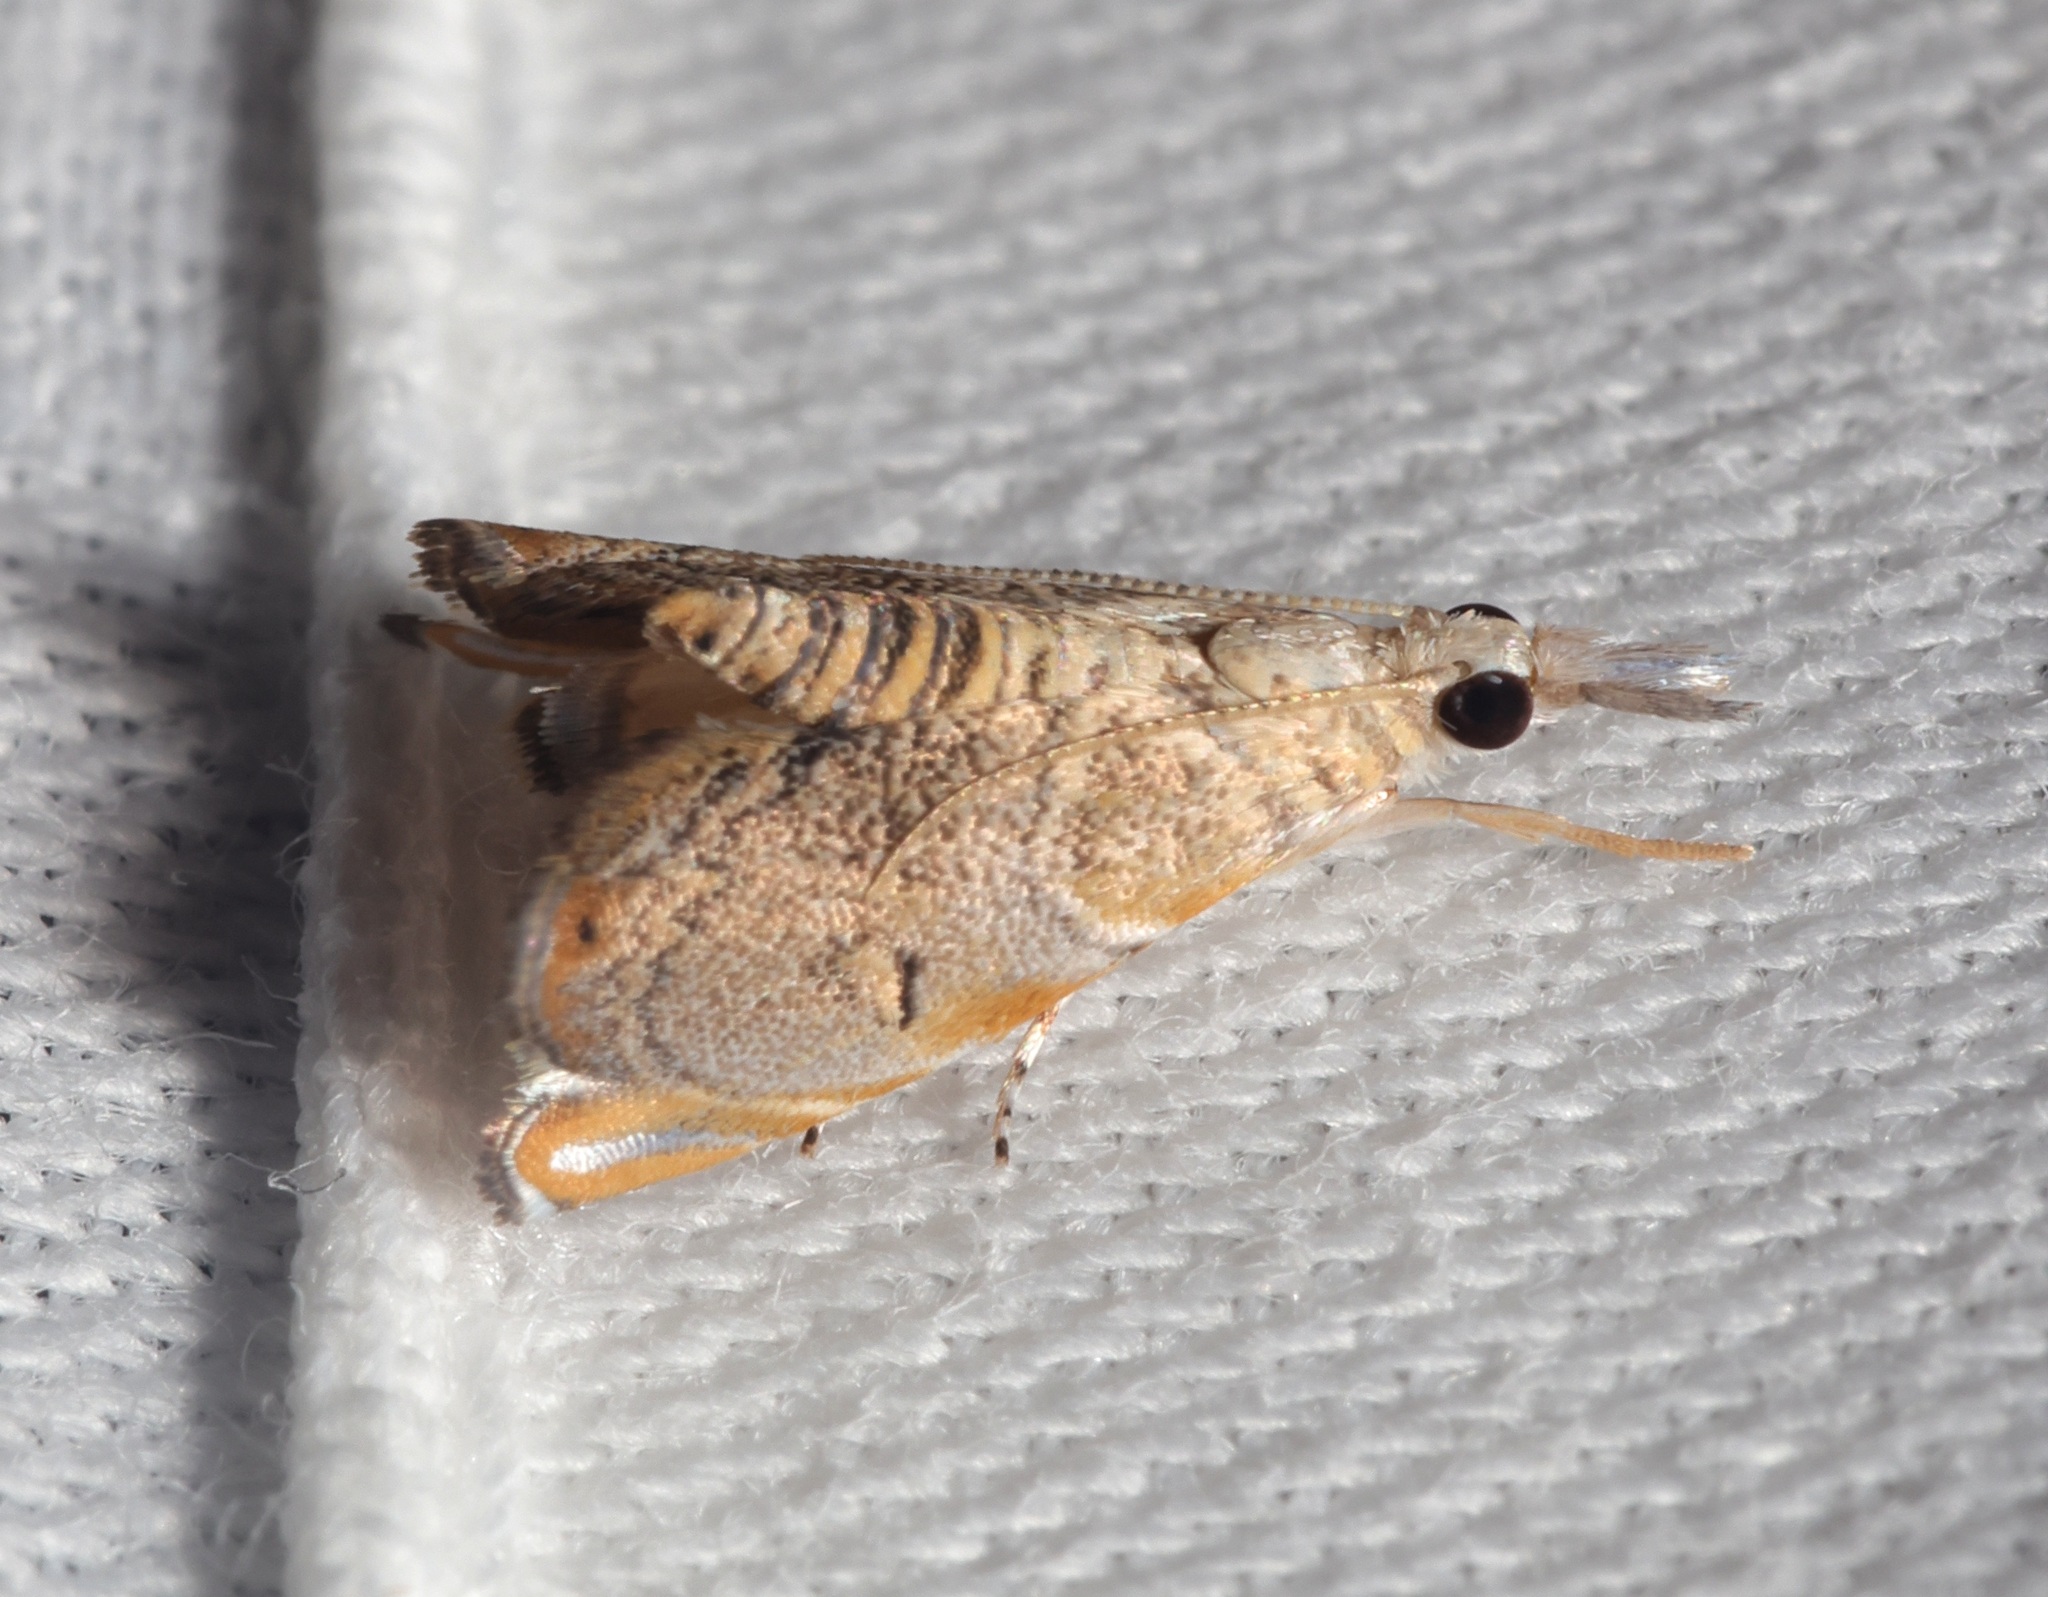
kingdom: Animalia
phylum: Arthropoda
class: Insecta
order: Lepidoptera
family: Crambidae
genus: Glaucocharis
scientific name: Glaucocharis siciformis
